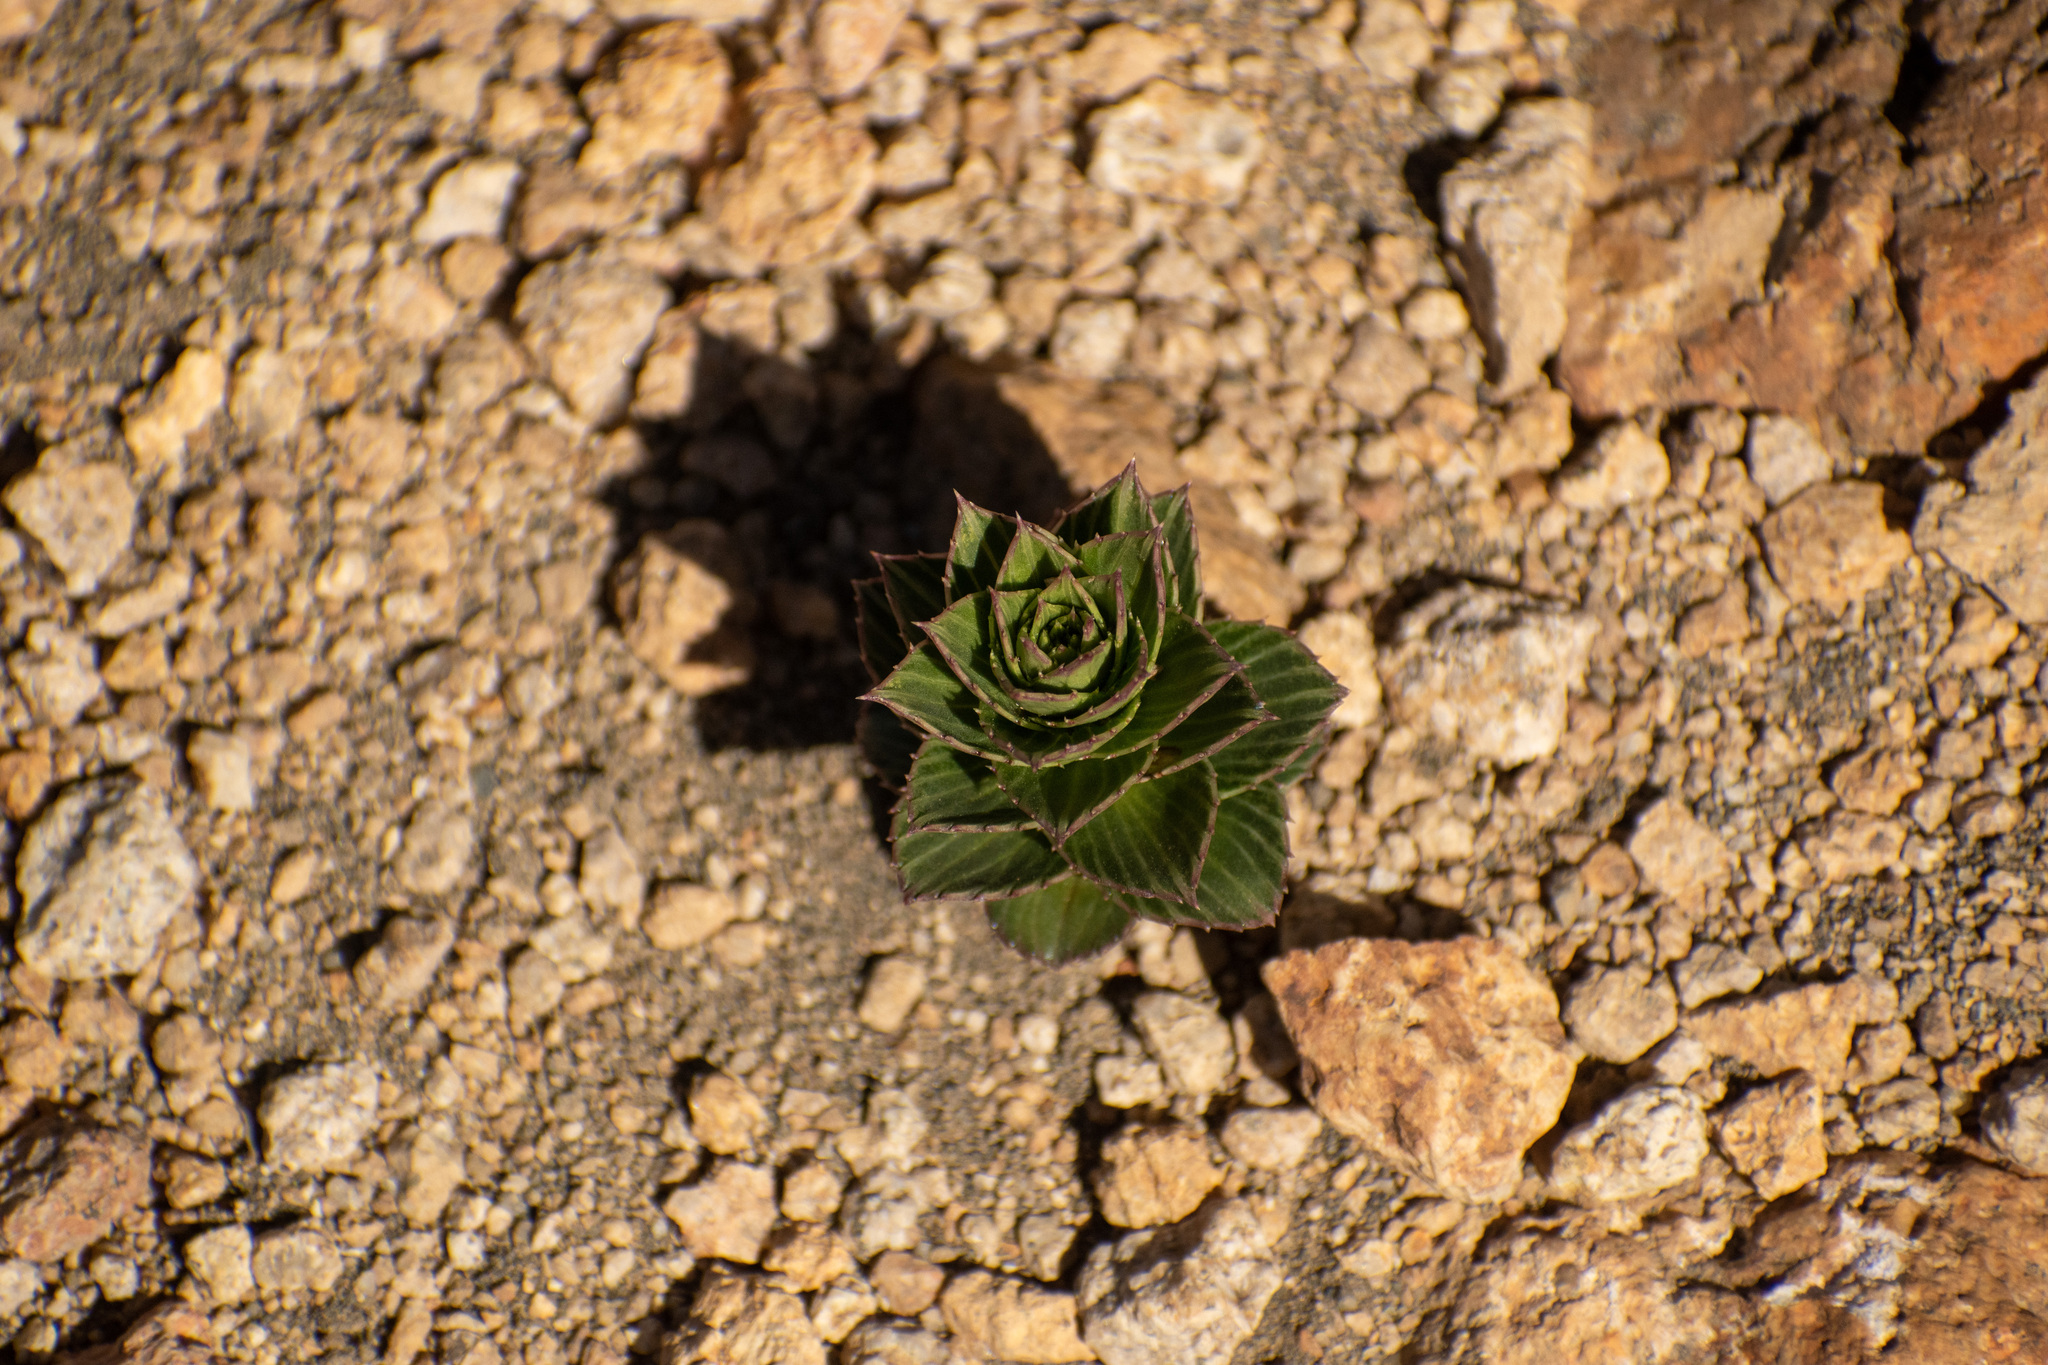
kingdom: Plantae
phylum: Tracheophyta
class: Magnoliopsida
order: Asterales
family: Asteraceae
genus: Nassauvia
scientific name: Nassauvia pulcherrima
